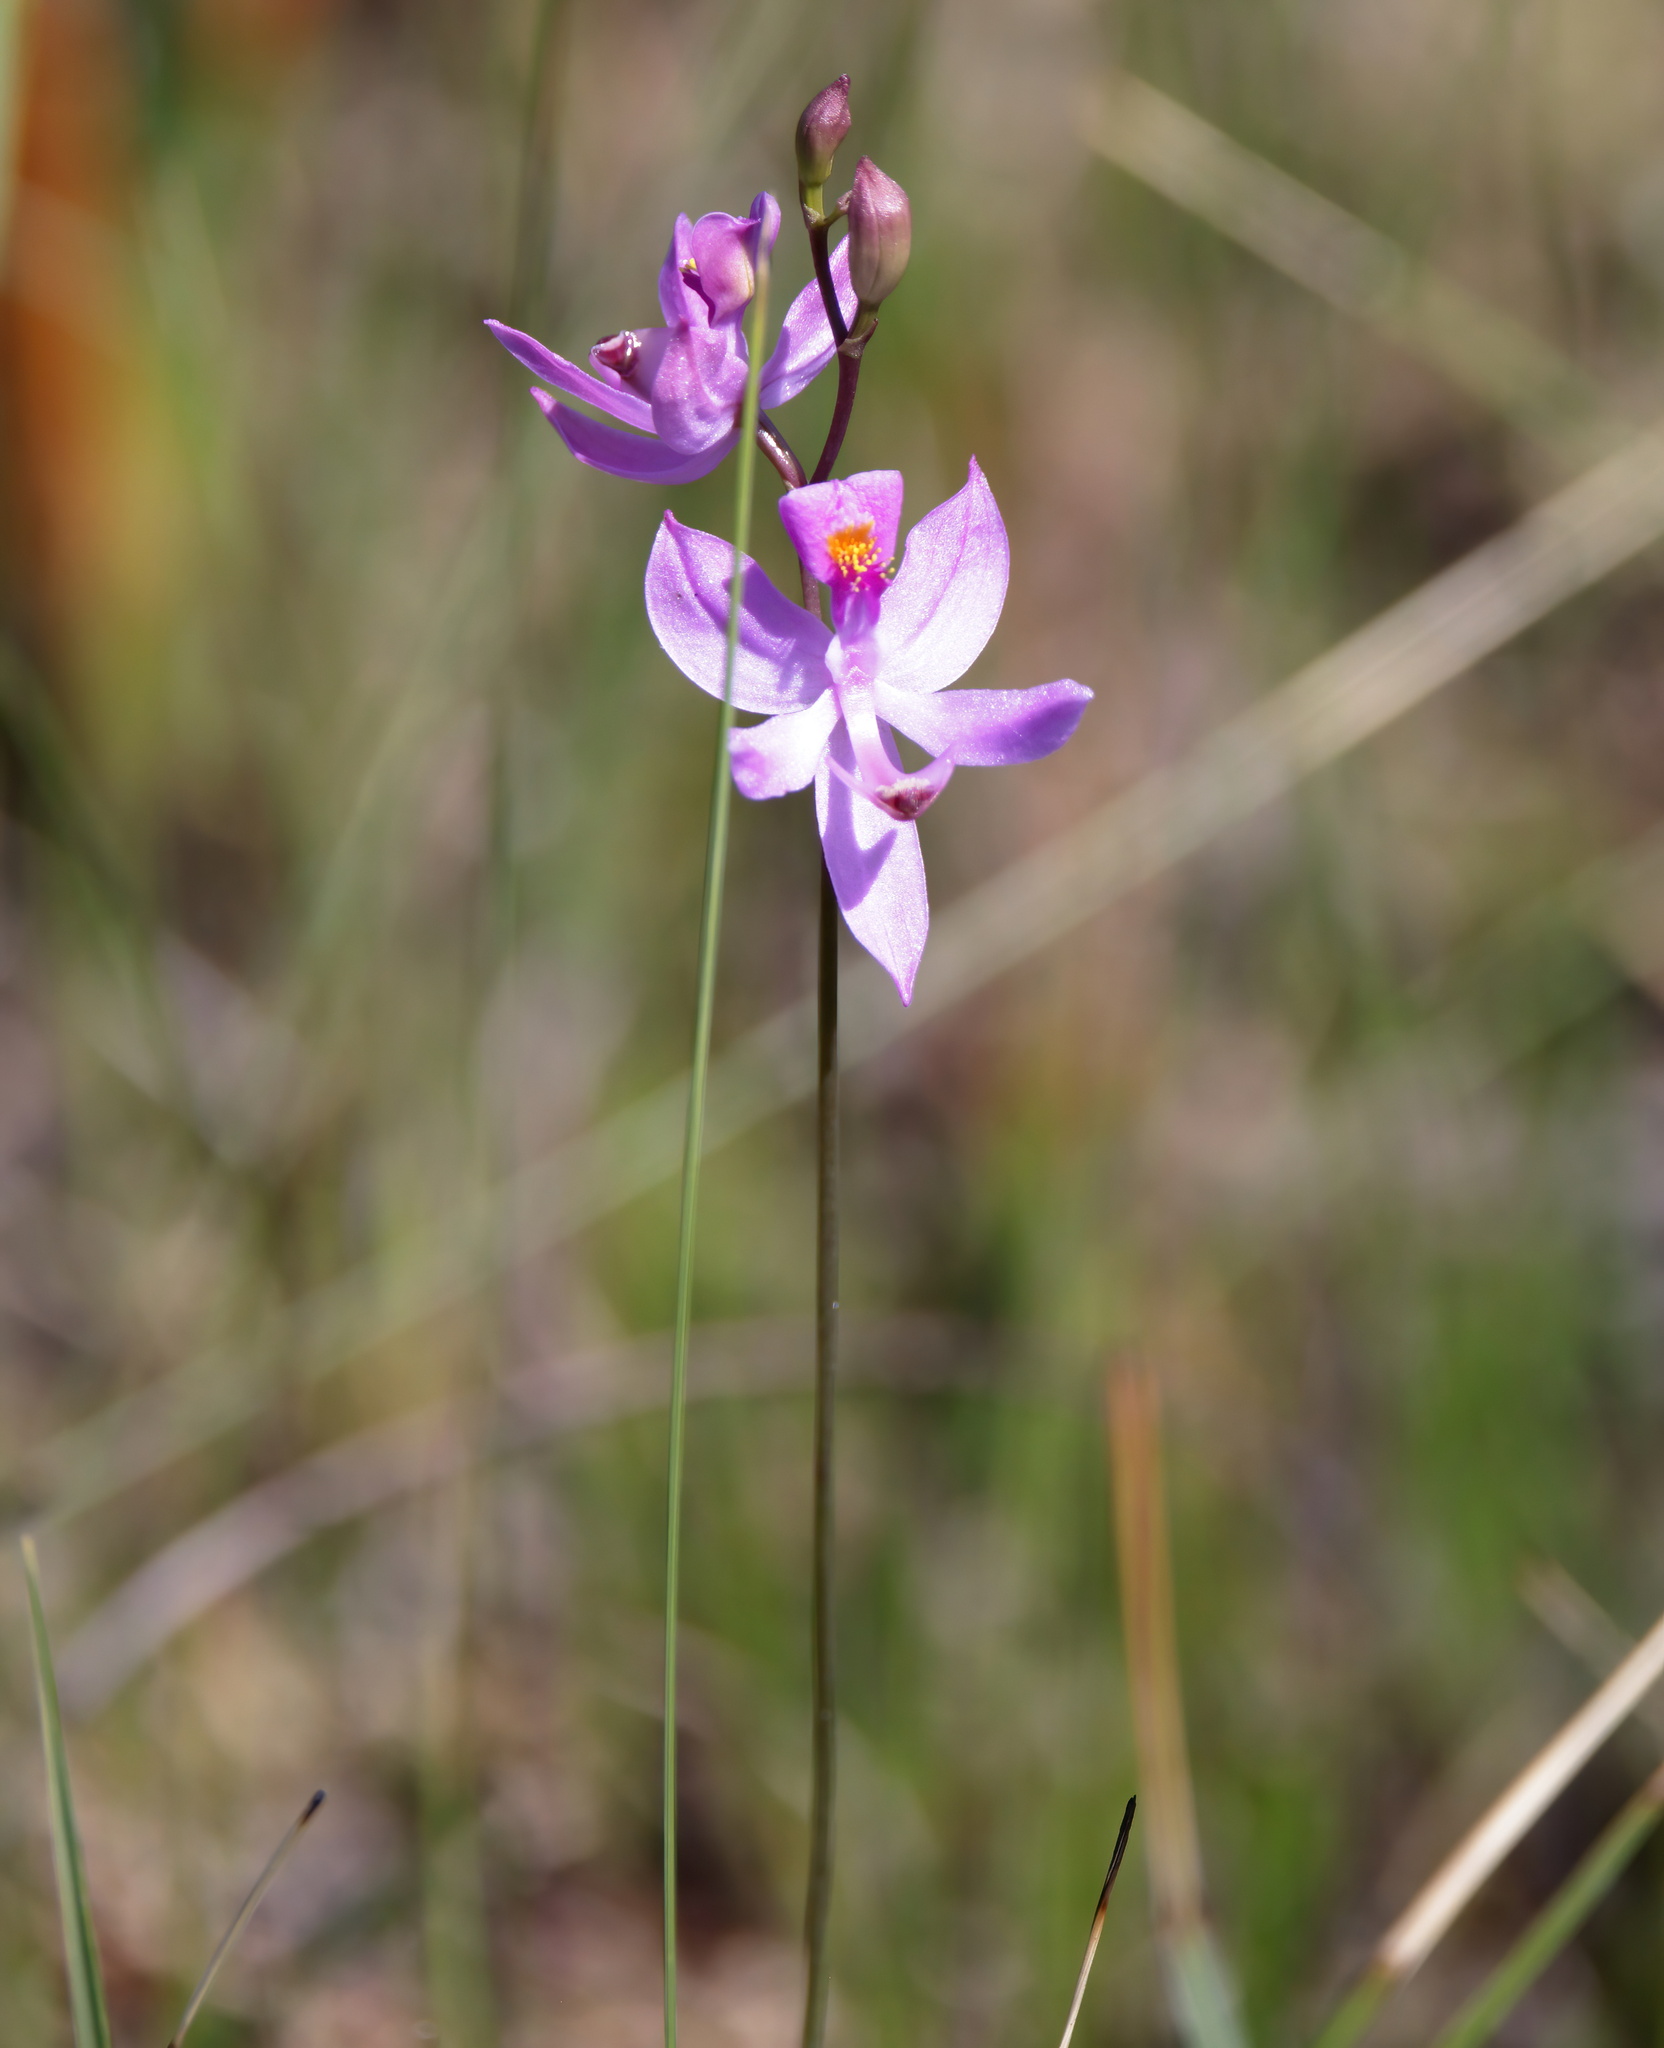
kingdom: Plantae
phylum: Tracheophyta
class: Liliopsida
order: Asparagales
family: Orchidaceae
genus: Calopogon
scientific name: Calopogon pallidus
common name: Pale grasspink
